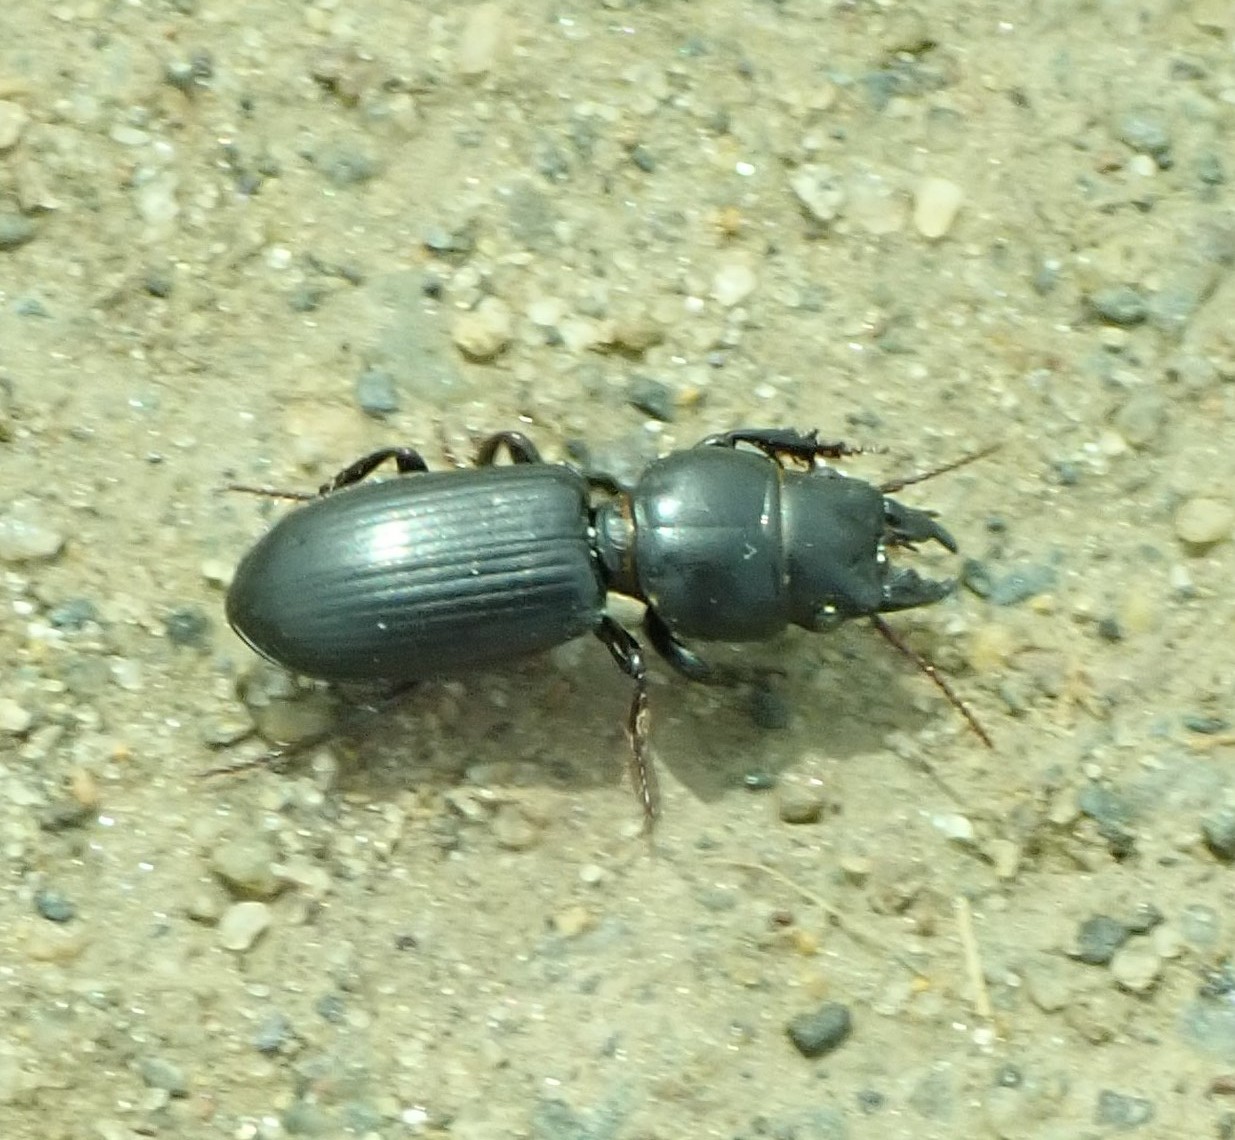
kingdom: Animalia
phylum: Arthropoda
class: Insecta
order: Coleoptera
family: Carabidae
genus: Scarites
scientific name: Scarites subterraneus
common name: Big-headed ground beetle
